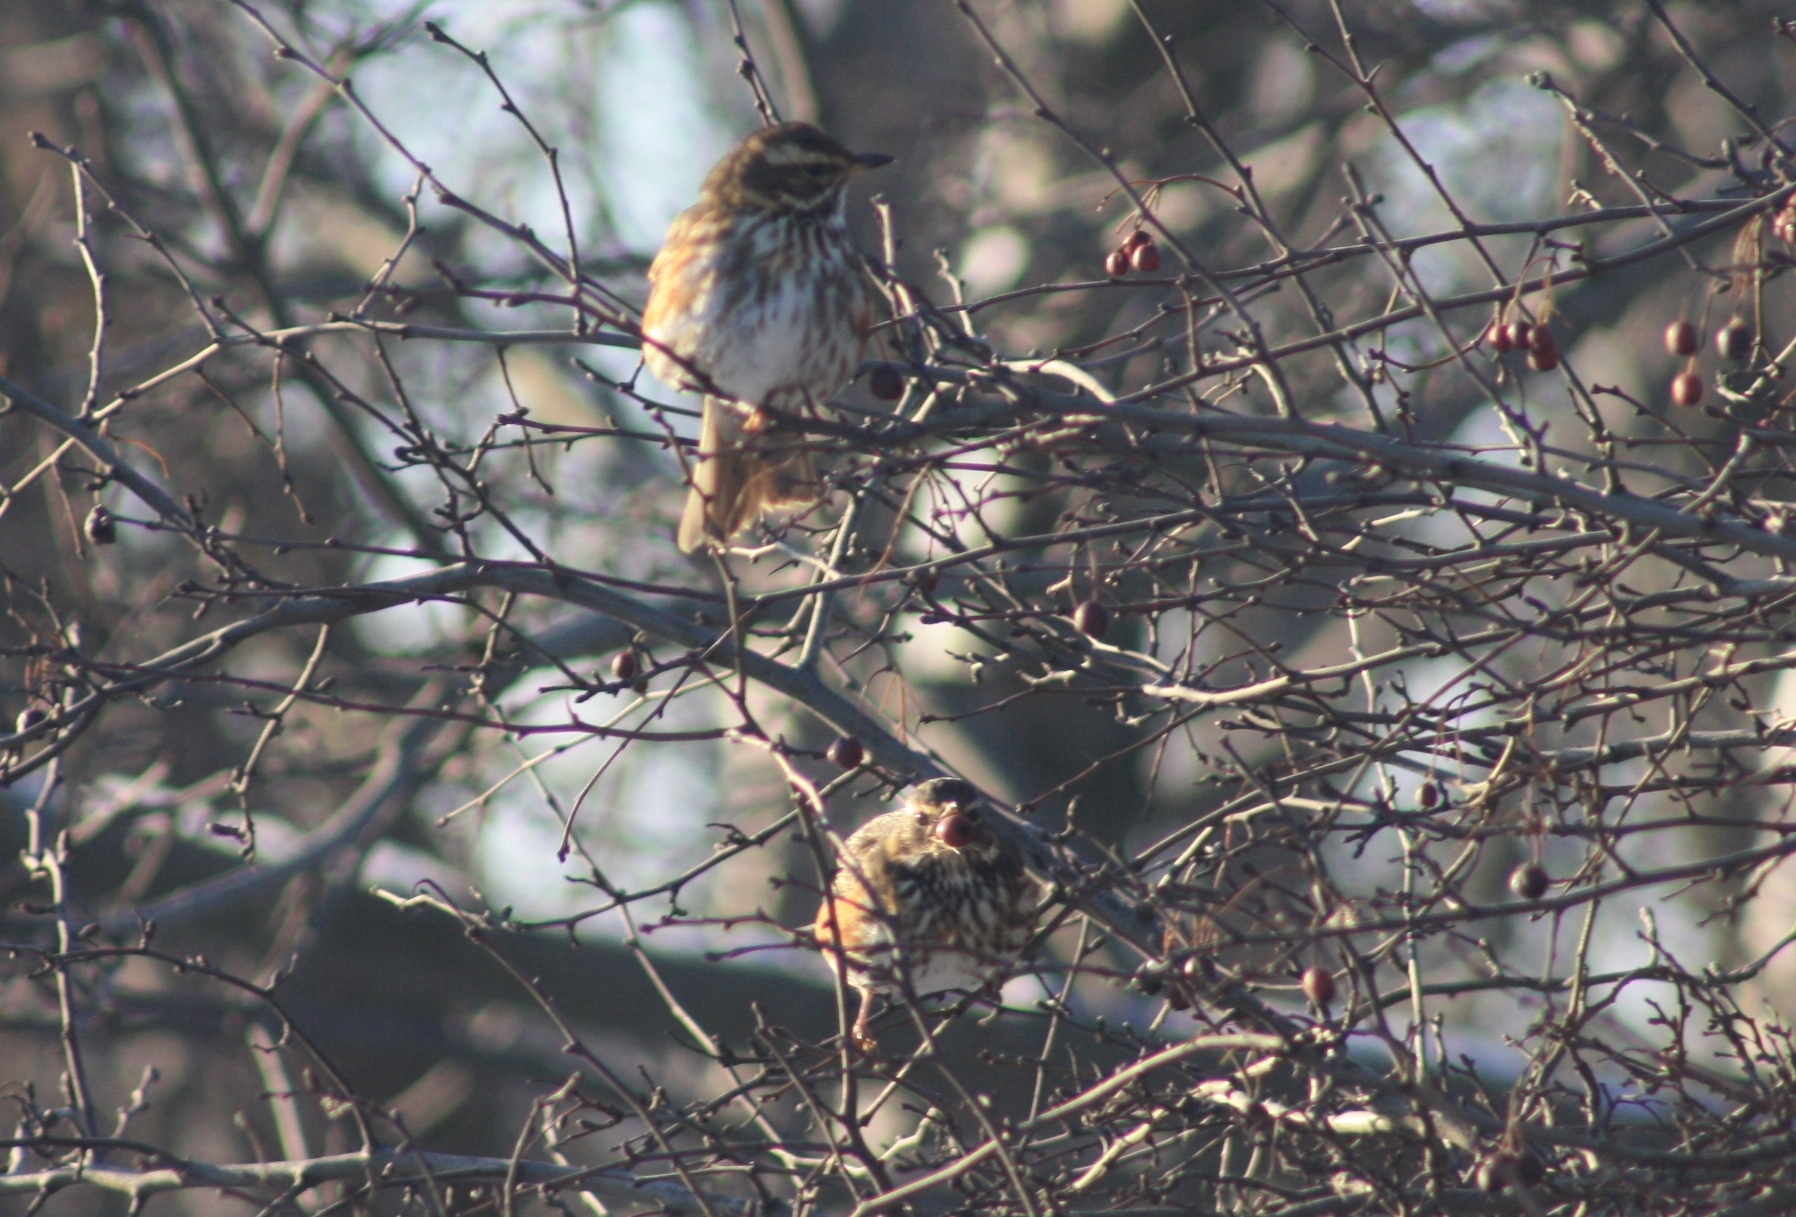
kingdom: Animalia
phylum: Chordata
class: Aves
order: Passeriformes
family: Turdidae
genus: Turdus
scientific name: Turdus iliacus
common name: Redwing
